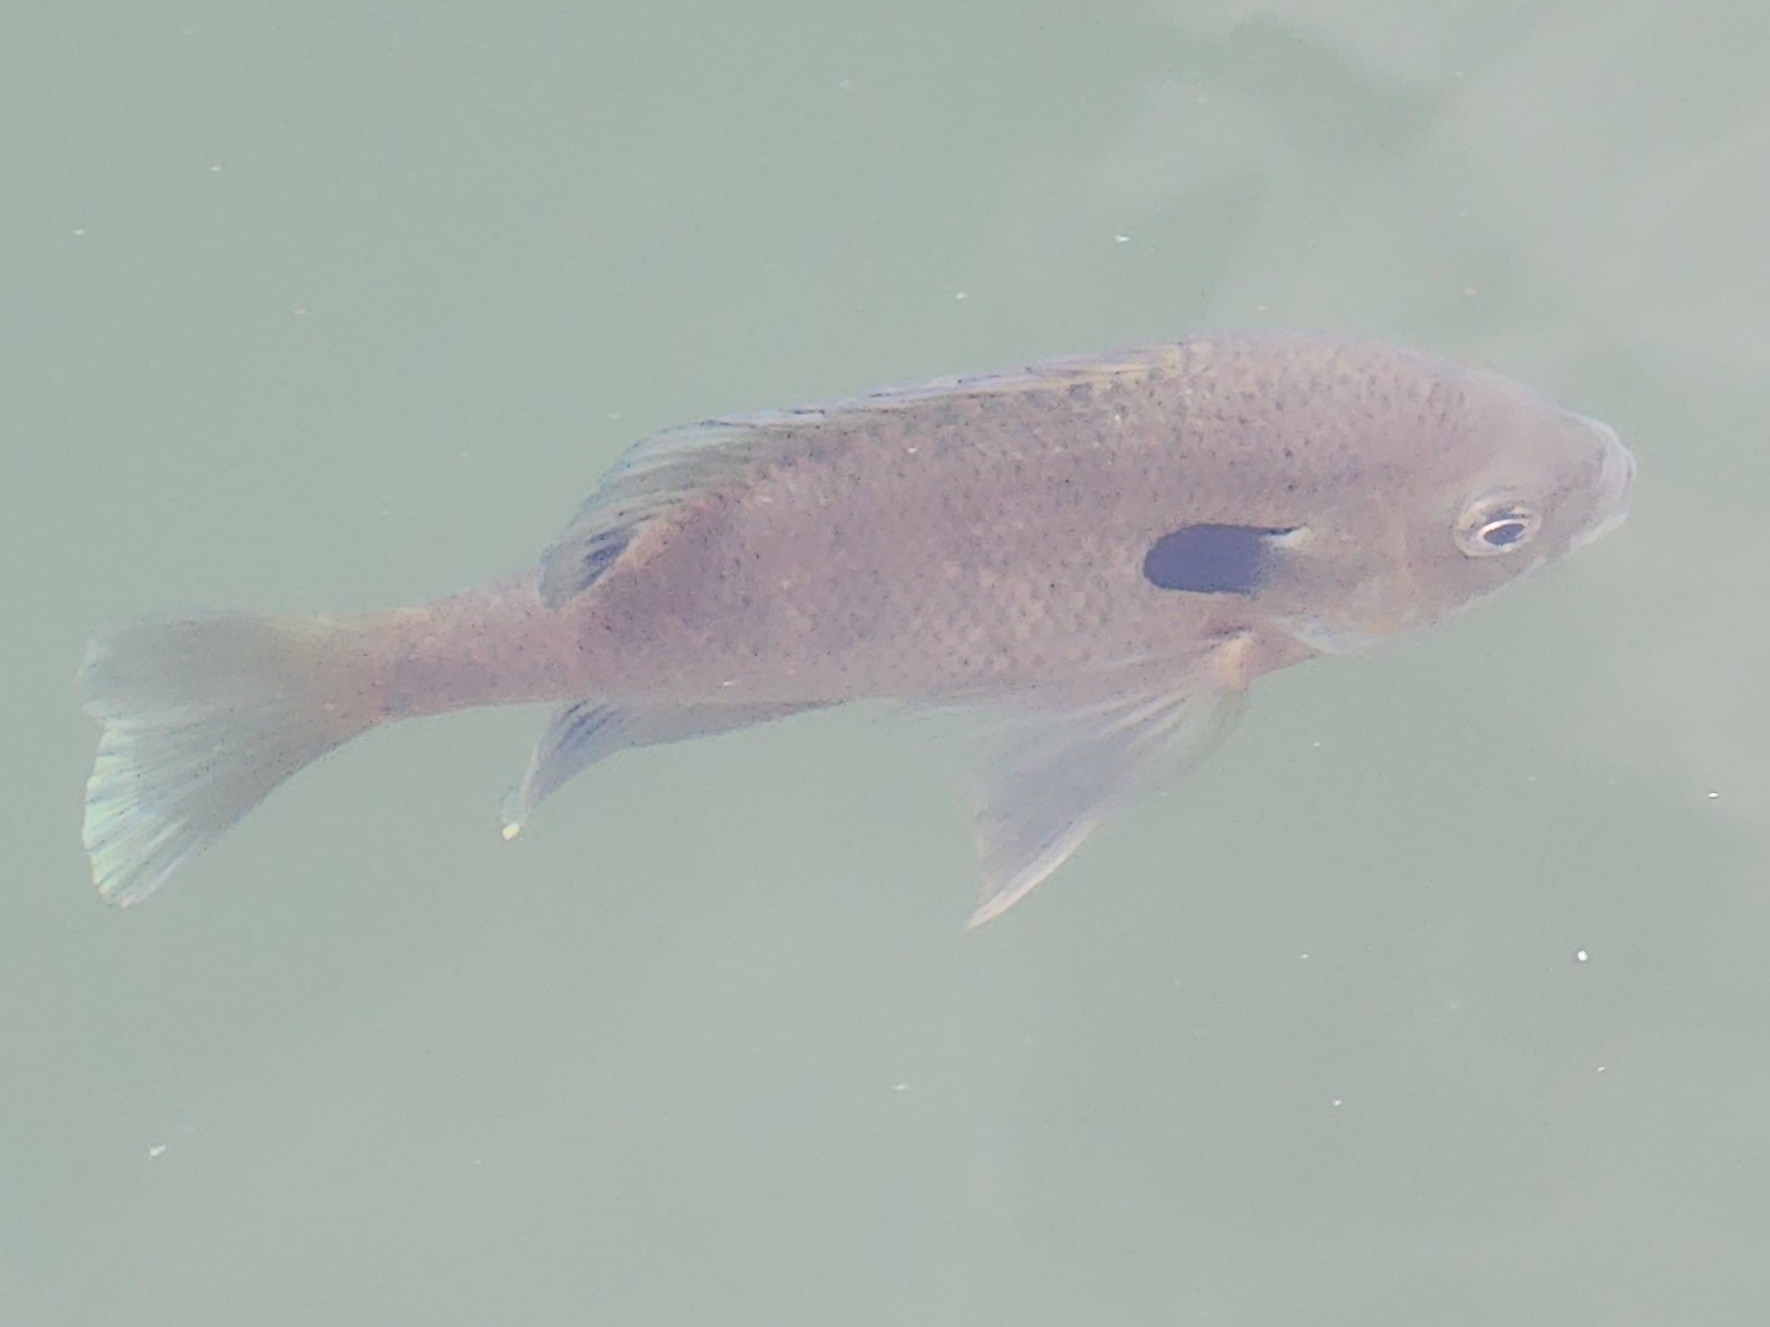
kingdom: Animalia
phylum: Chordata
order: Perciformes
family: Centrarchidae
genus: Lepomis
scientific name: Lepomis macrochirus
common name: Bluegill
